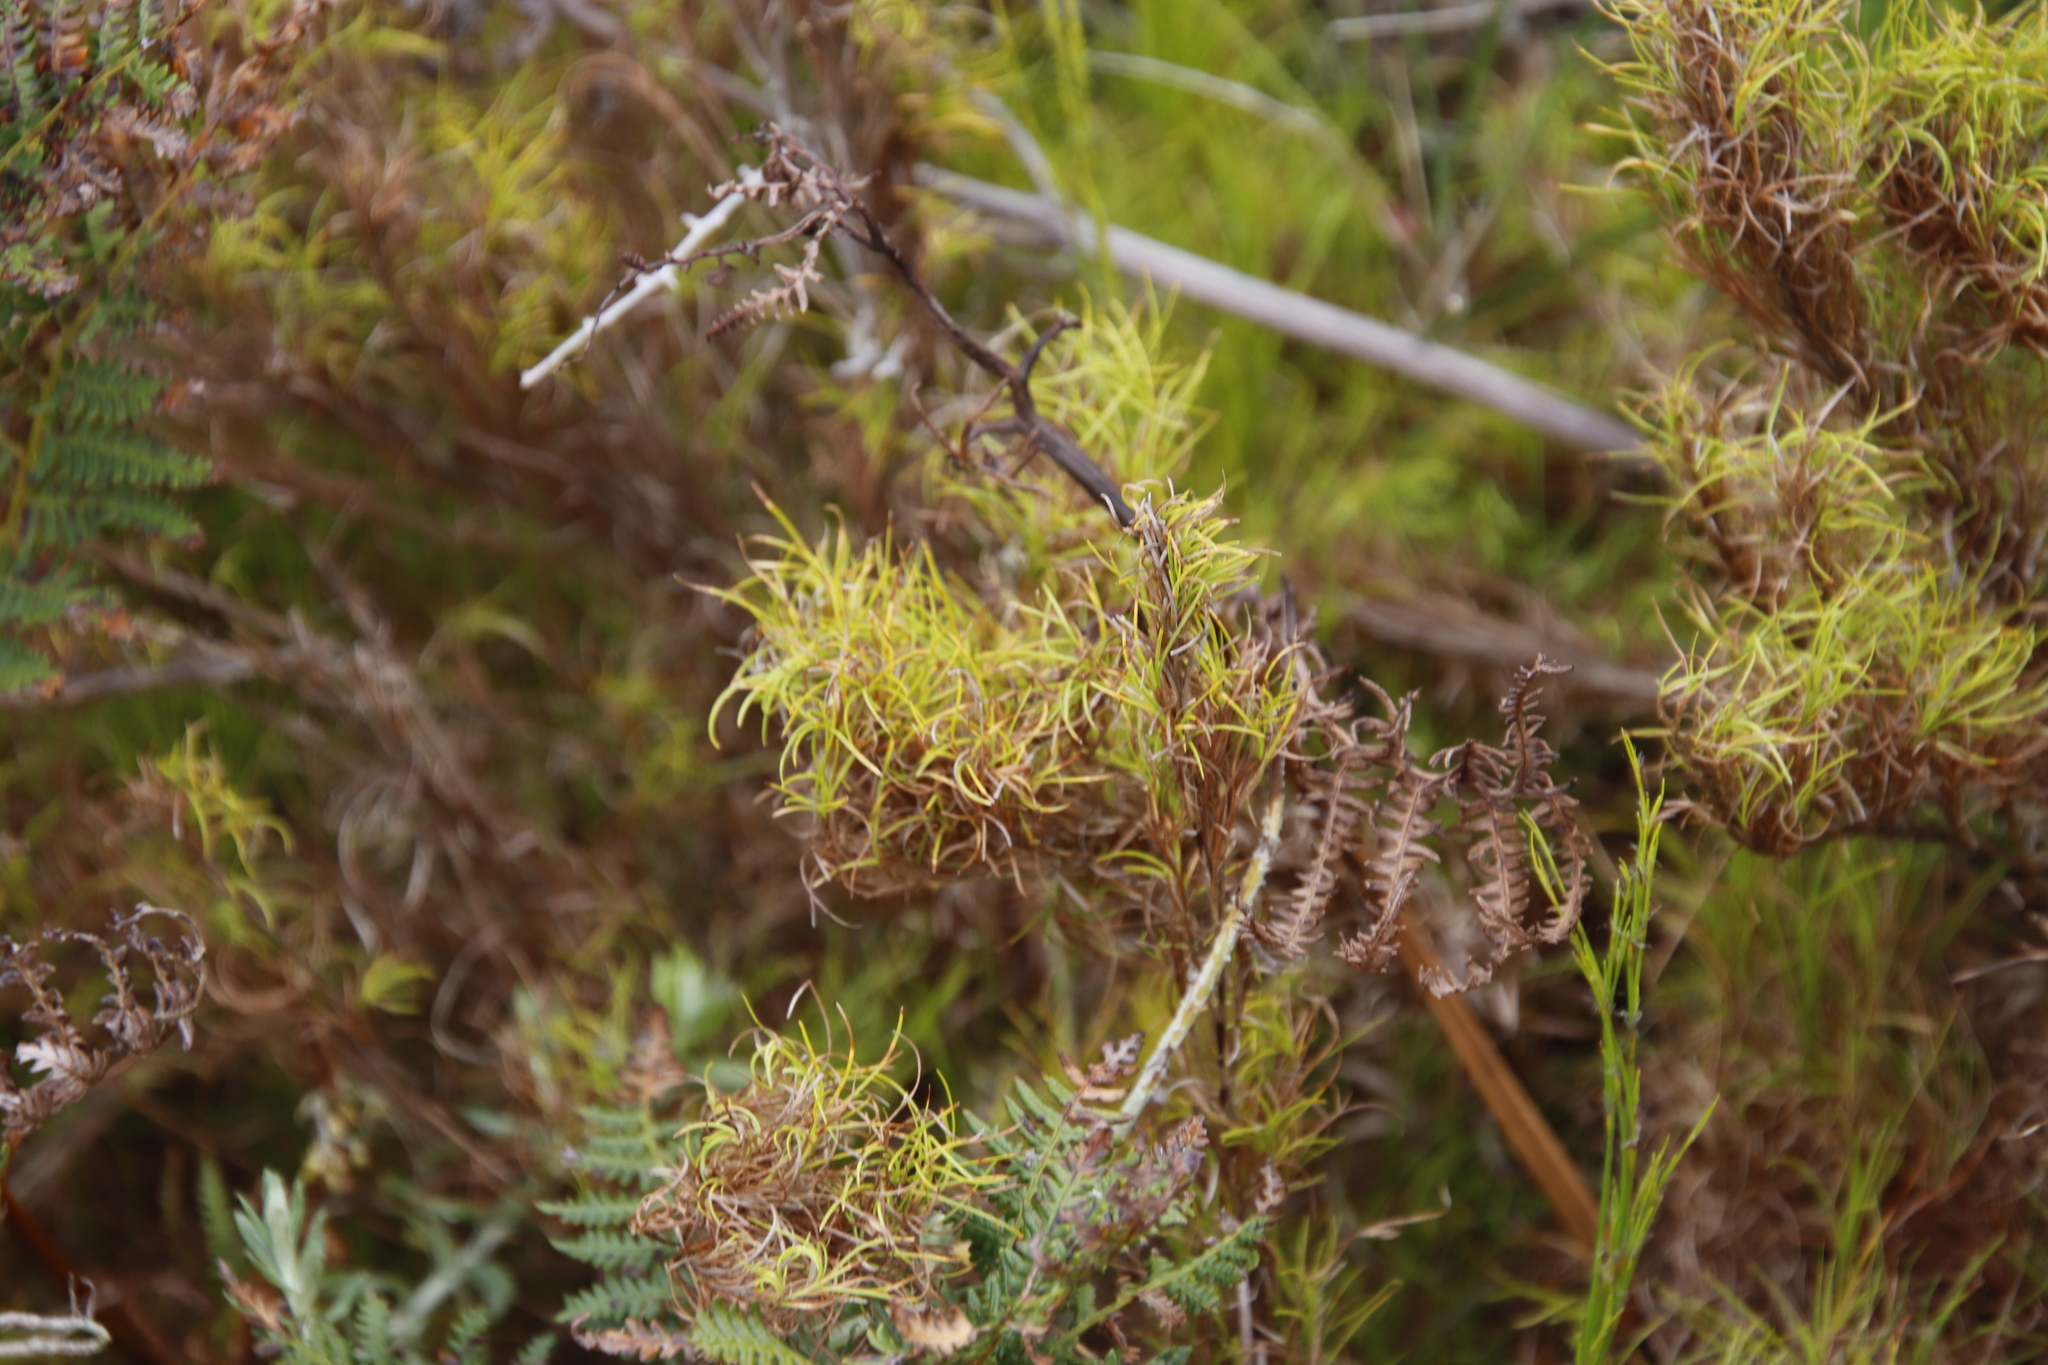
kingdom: Plantae
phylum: Tracheophyta
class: Liliopsida
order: Poales
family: Cyperaceae
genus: Ficinia
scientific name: Ficinia ramosissima
